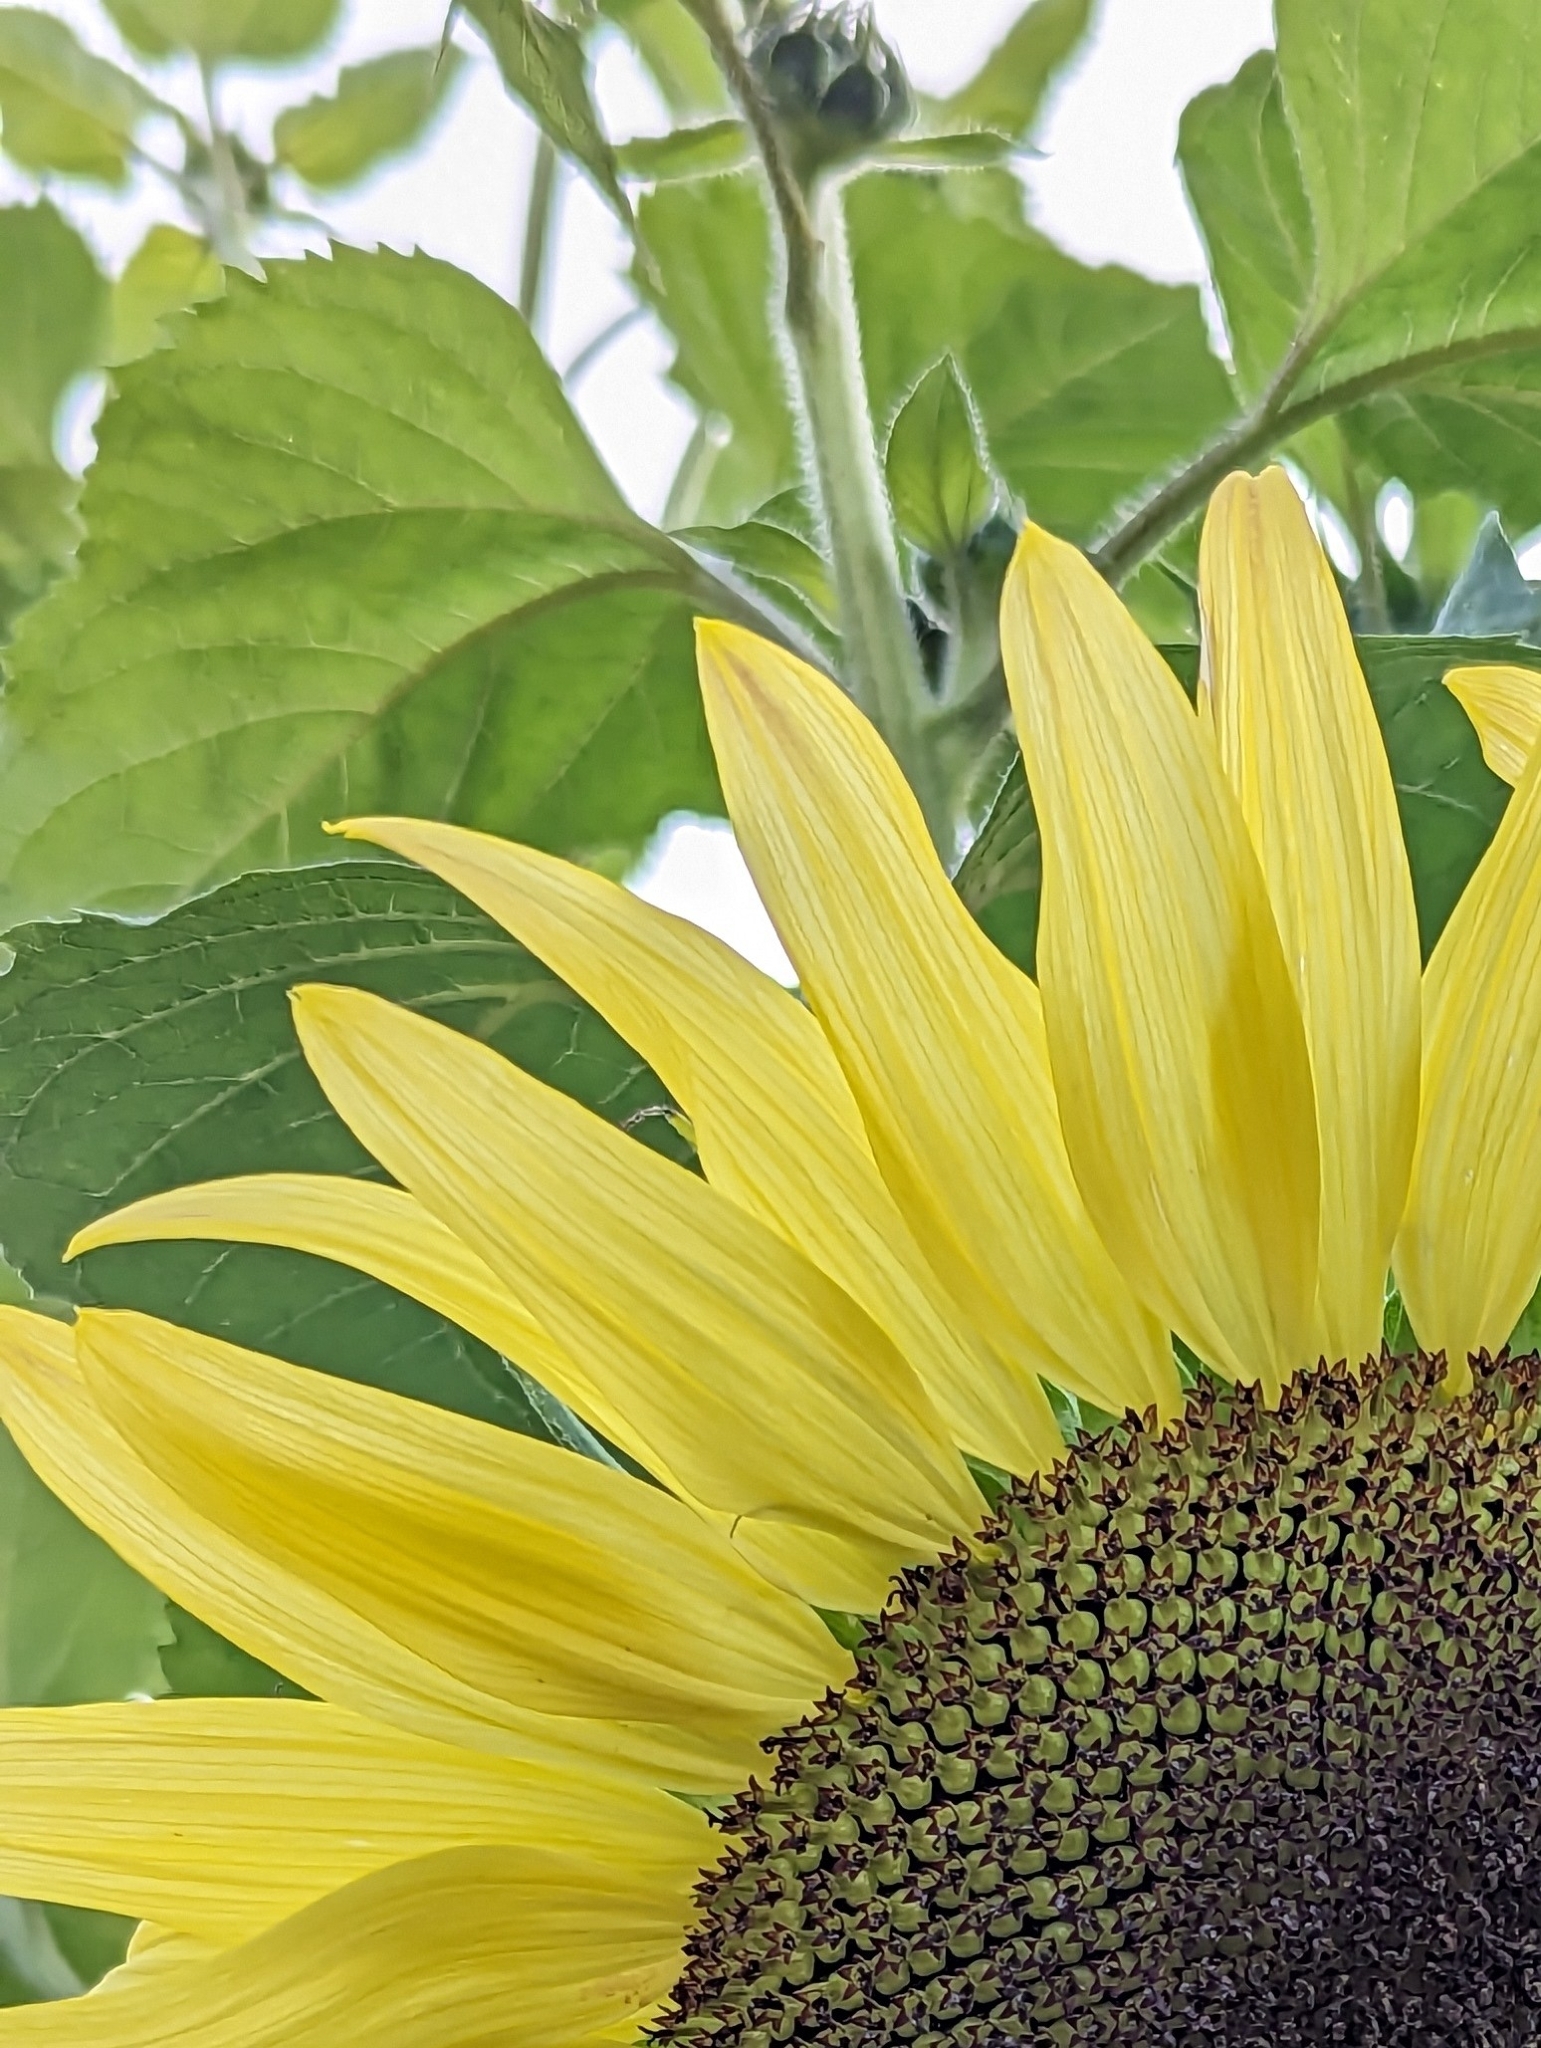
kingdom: Plantae
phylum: Tracheophyta
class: Magnoliopsida
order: Asterales
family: Asteraceae
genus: Helianthus
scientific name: Helianthus annuus
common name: Sunflower
